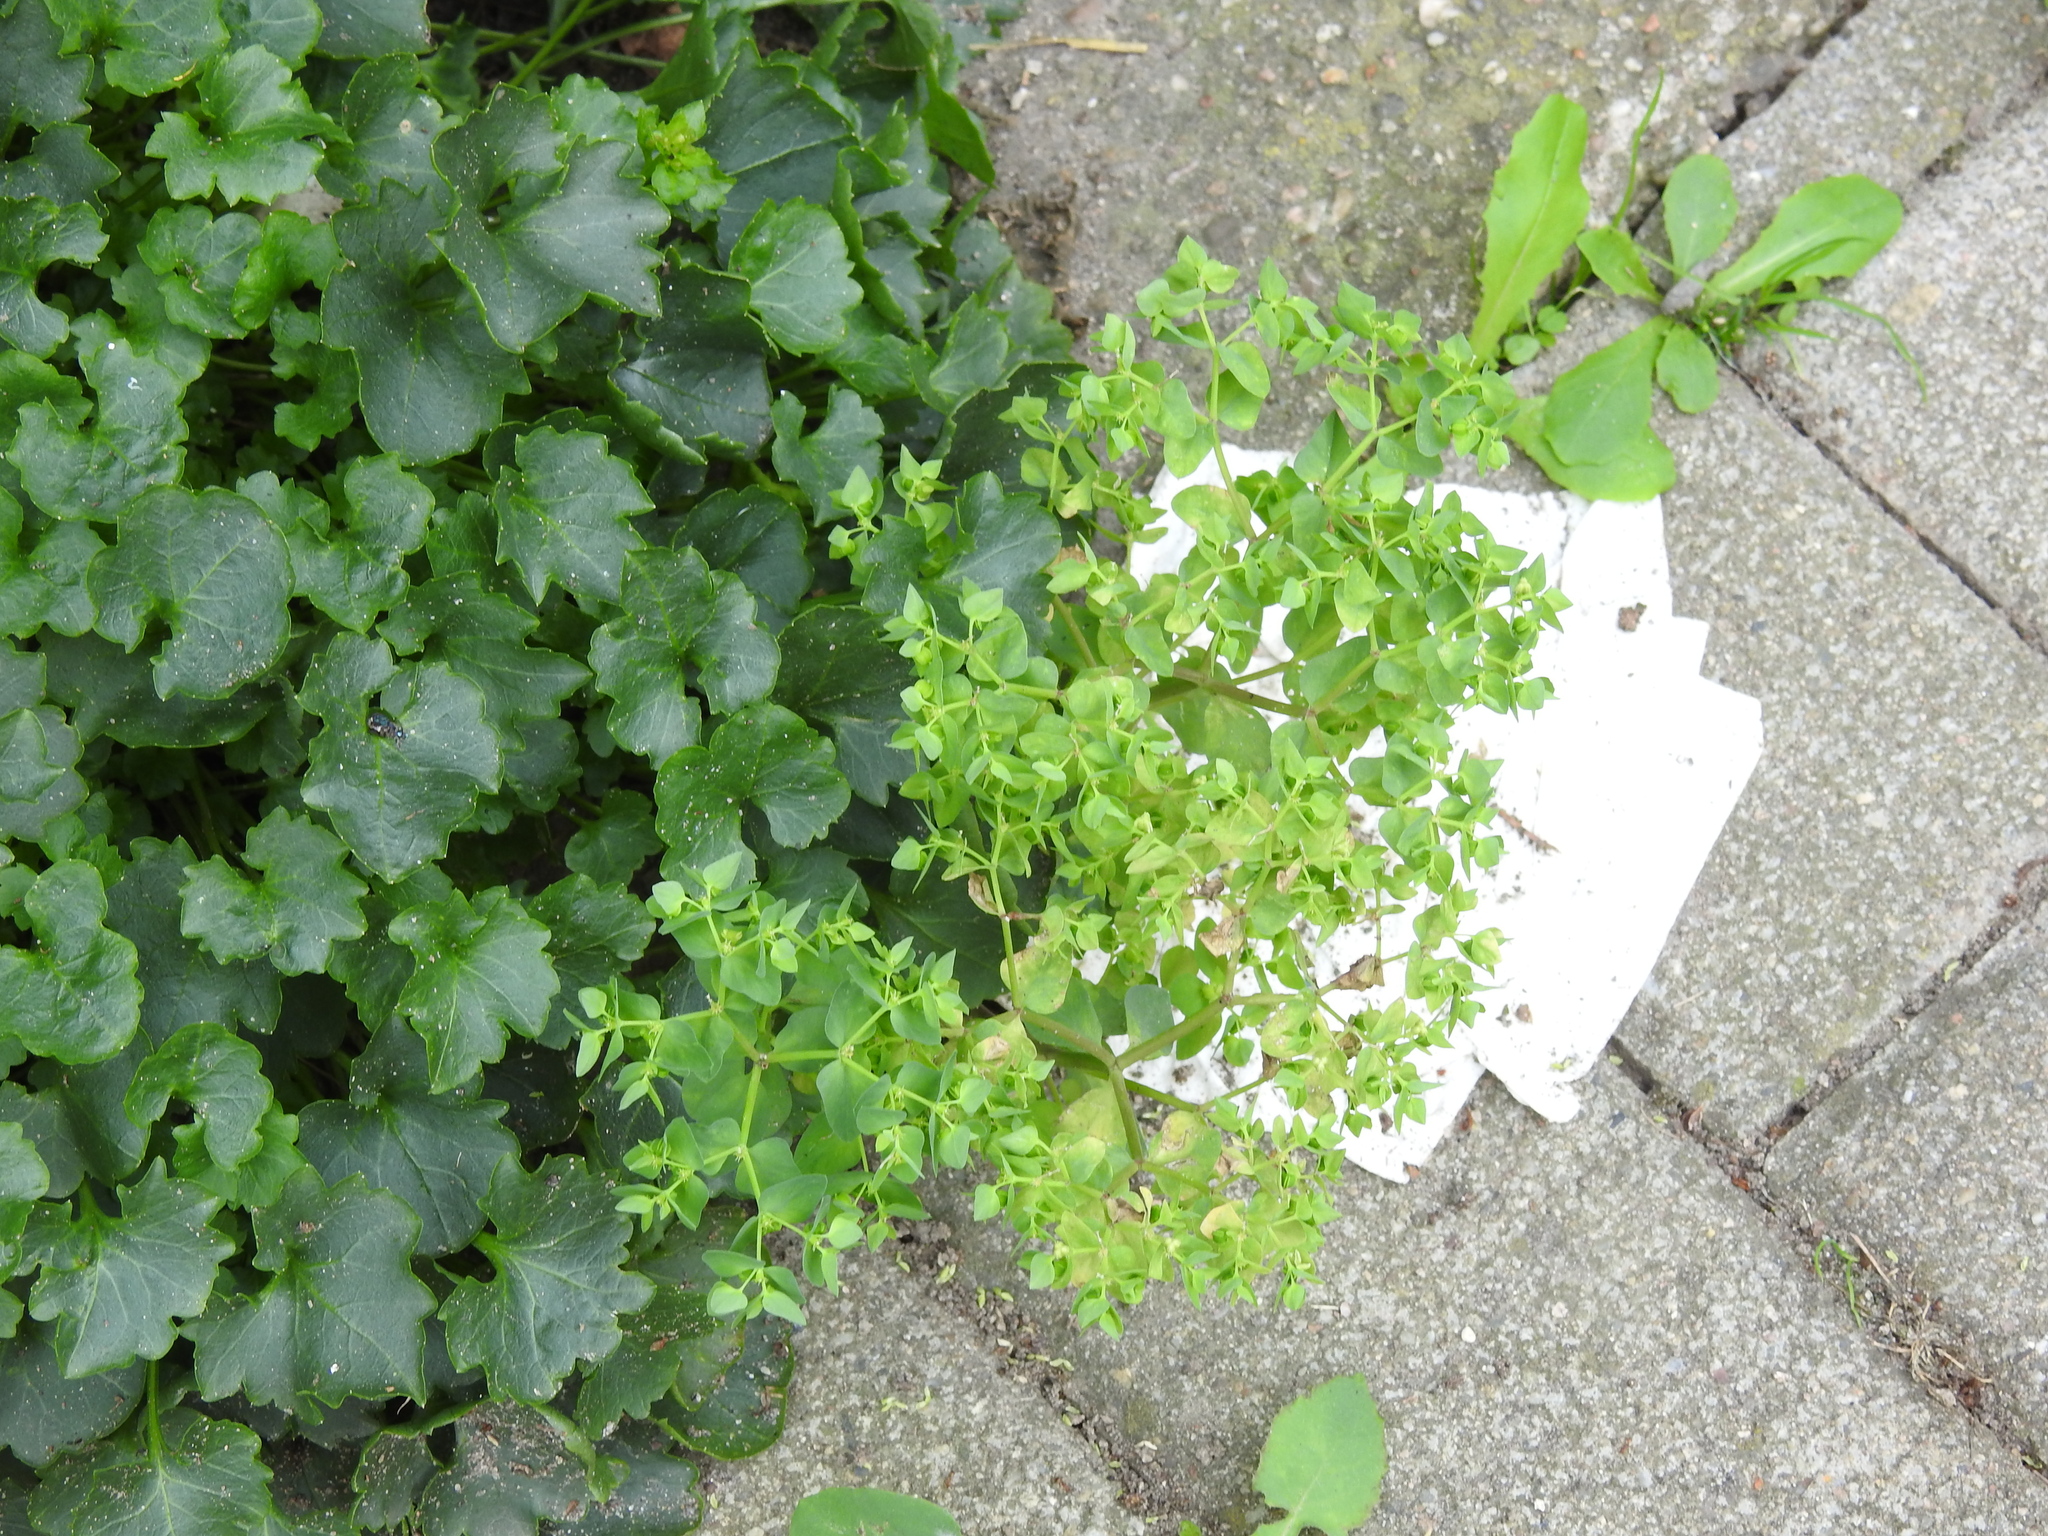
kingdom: Plantae
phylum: Tracheophyta
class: Magnoliopsida
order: Malpighiales
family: Euphorbiaceae
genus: Euphorbia
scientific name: Euphorbia peplus
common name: Petty spurge
